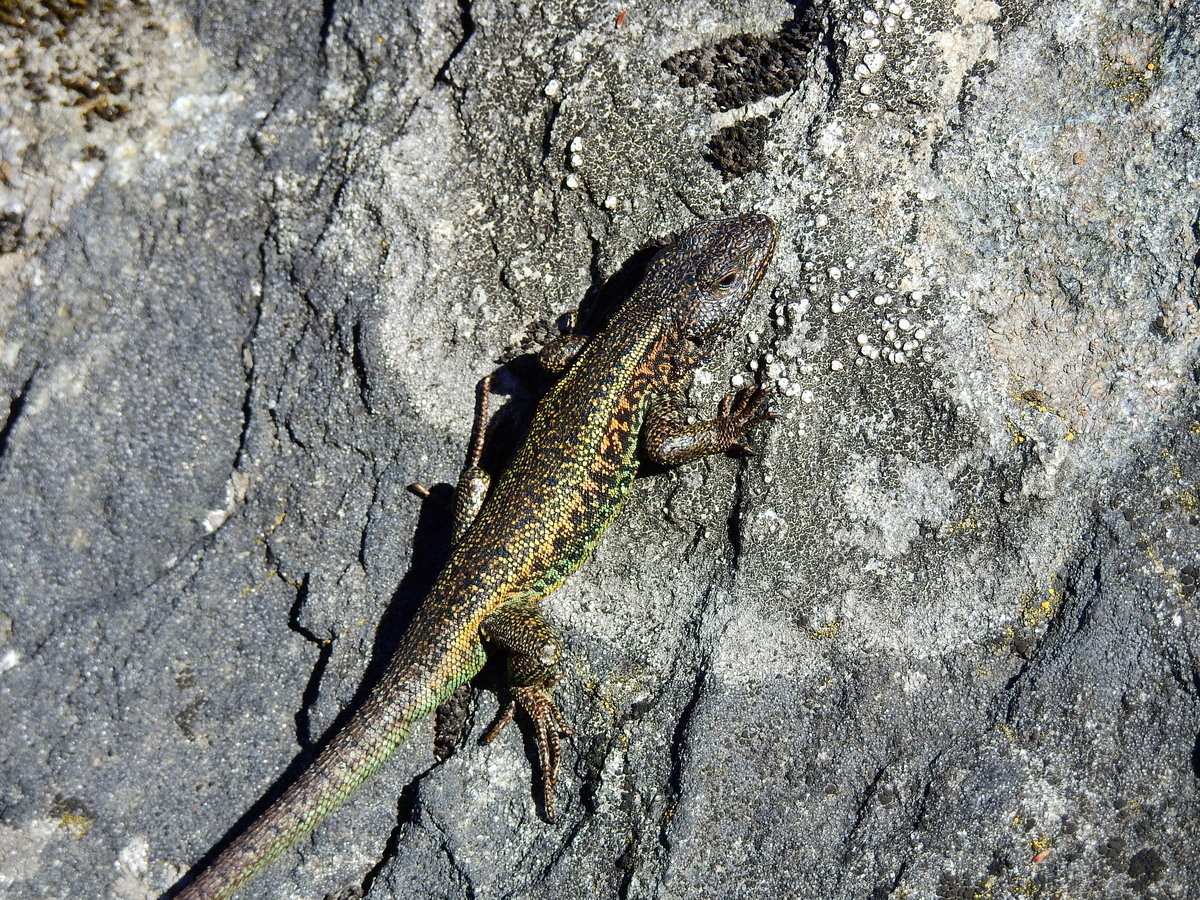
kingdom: Animalia
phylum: Chordata
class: Squamata
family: Liolaemidae
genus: Liolaemus
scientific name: Liolaemus pictus
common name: Painted tree iguana
